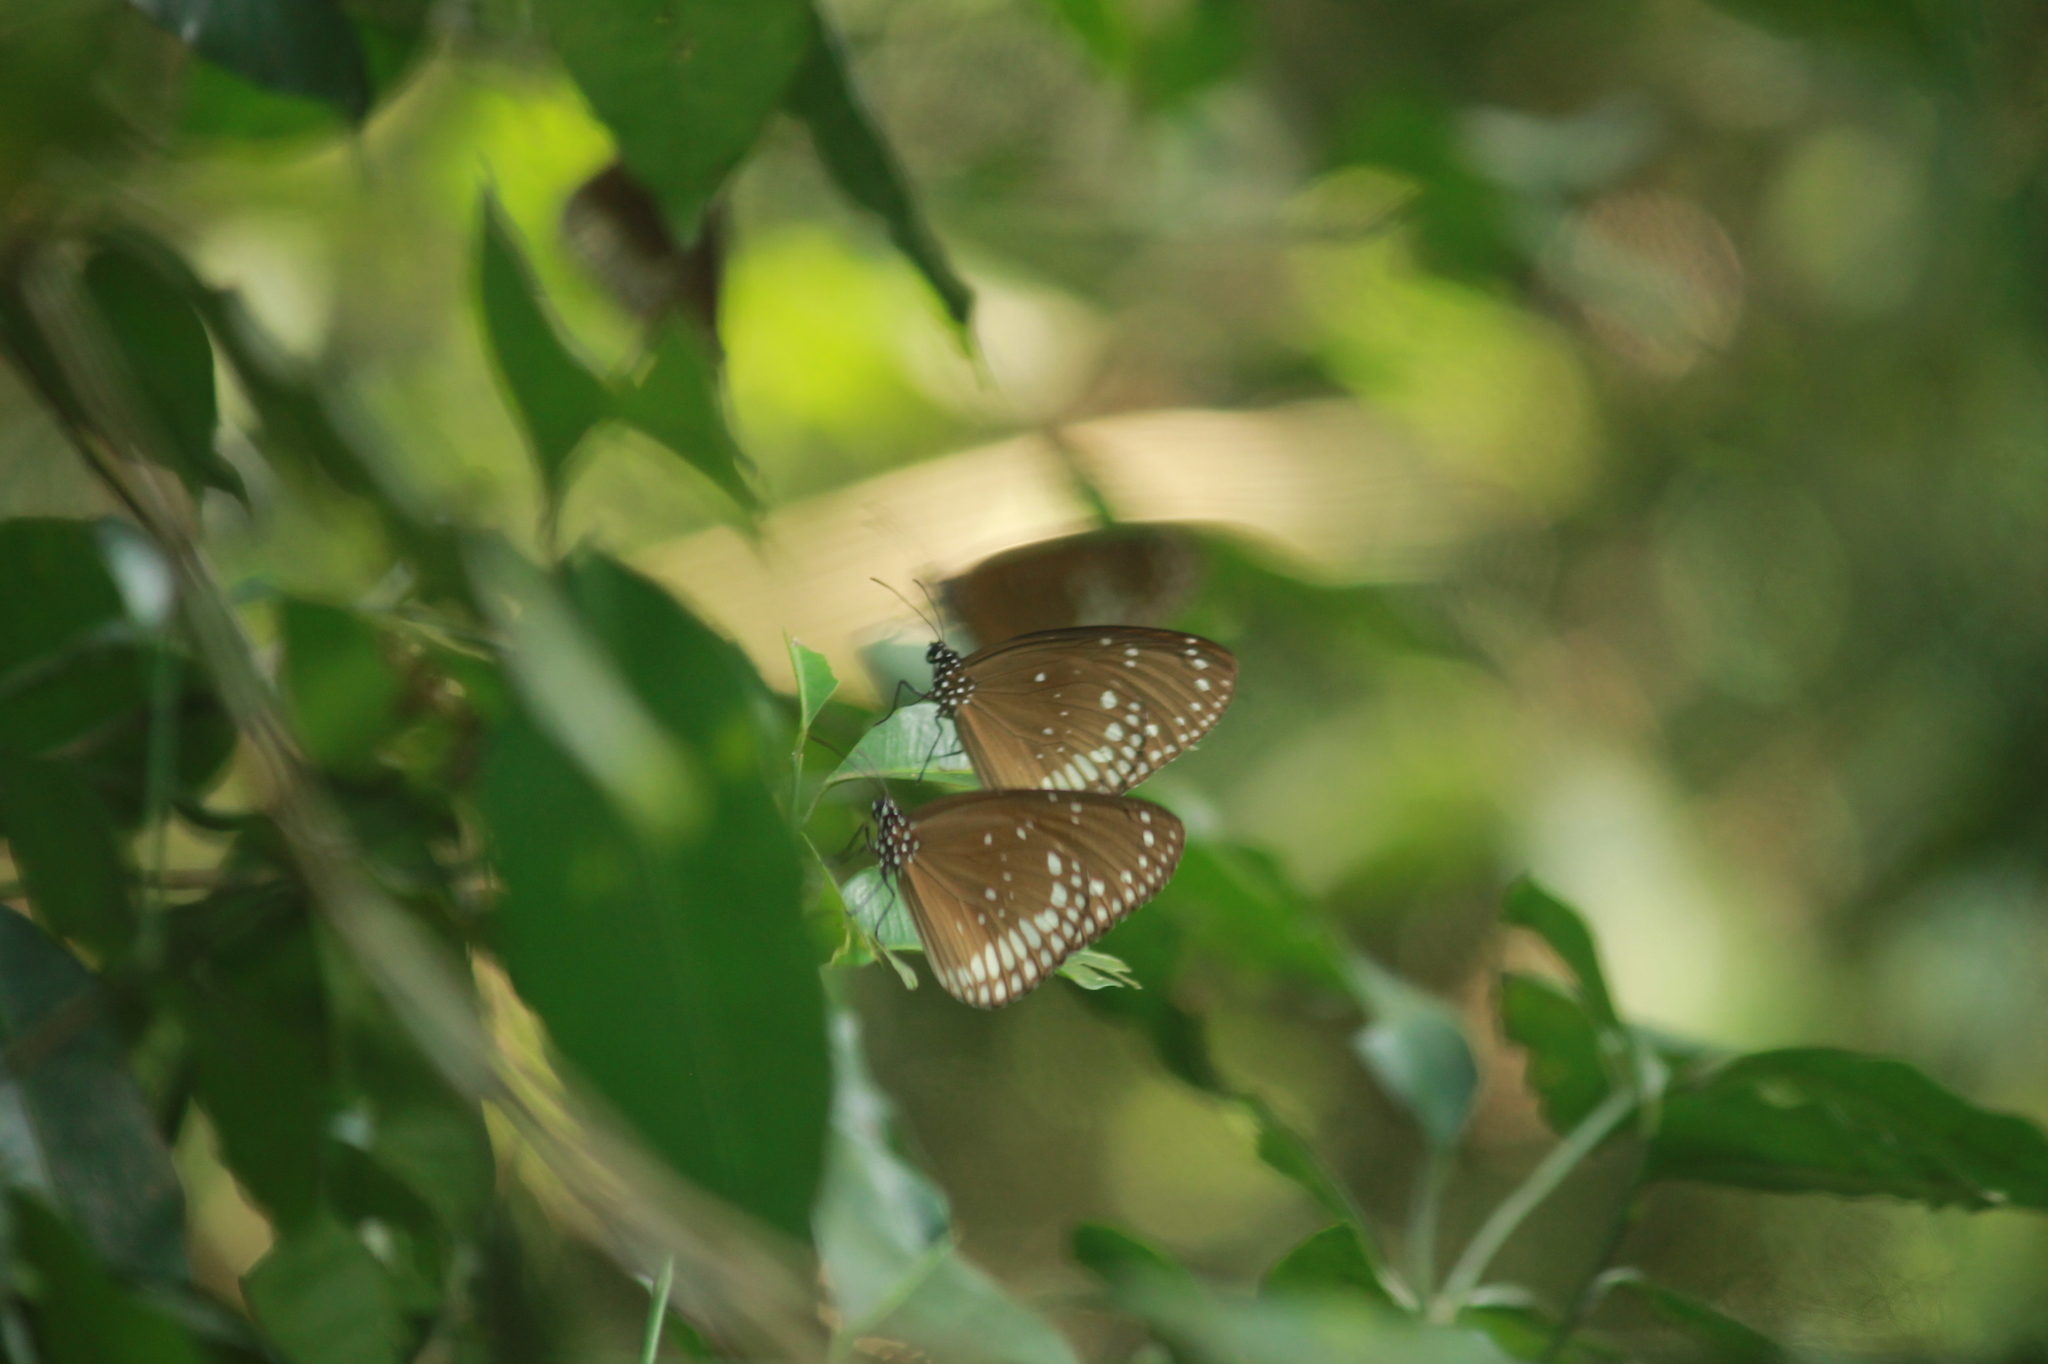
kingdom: Animalia
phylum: Arthropoda
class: Insecta
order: Lepidoptera
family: Nymphalidae
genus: Euploea
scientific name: Euploea sylvester
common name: Double-branded crow butterfly
